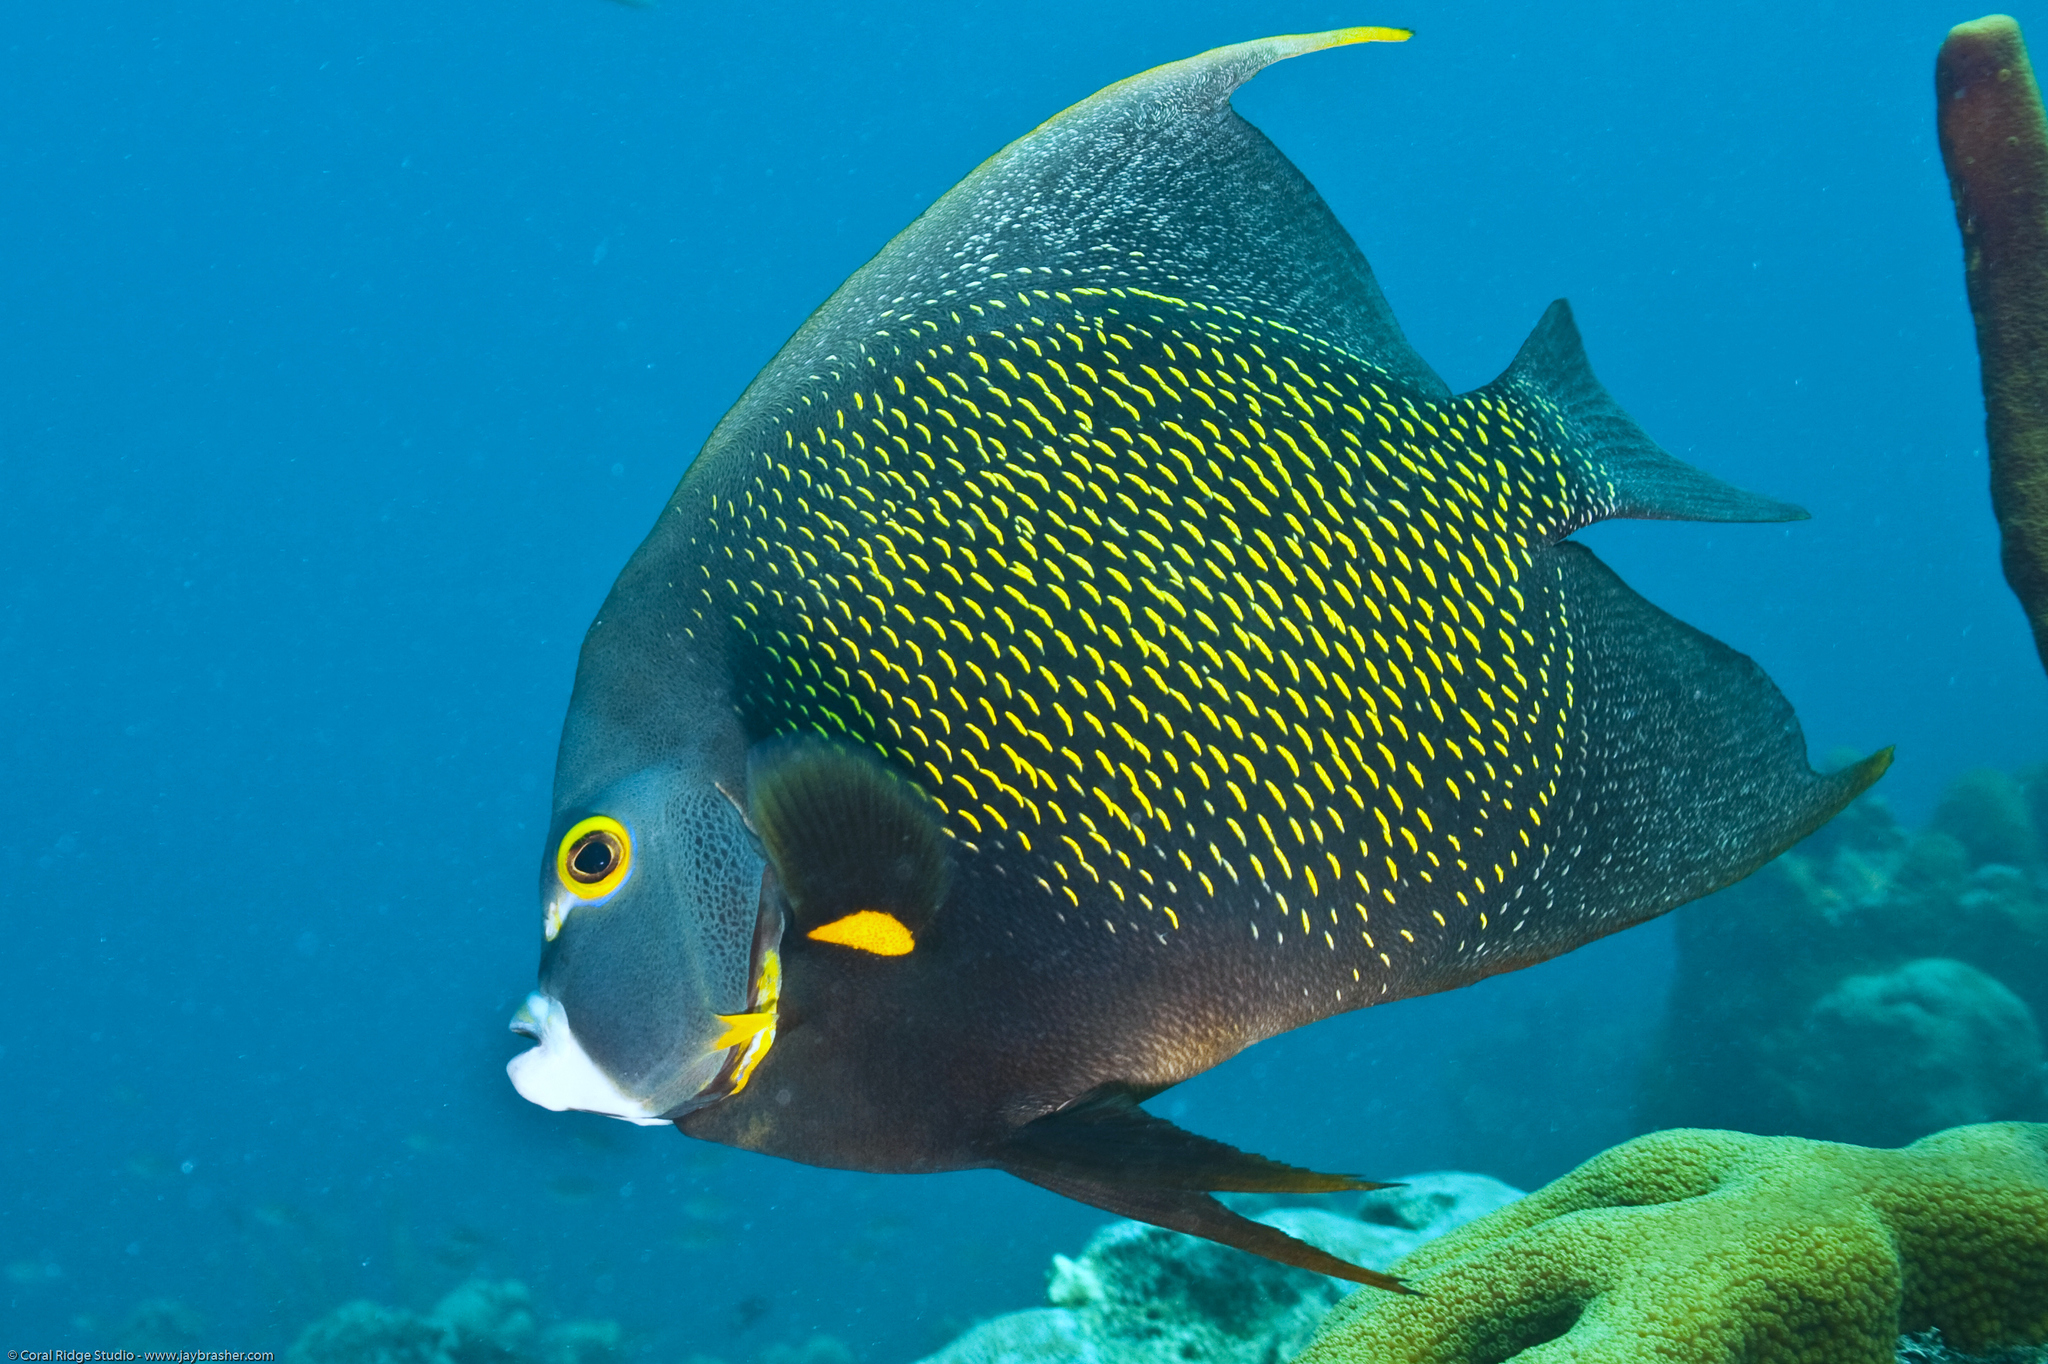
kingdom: Animalia
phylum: Chordata
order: Perciformes
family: Pomacanthidae
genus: Pomacanthus
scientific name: Pomacanthus paru
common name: French angelfish
